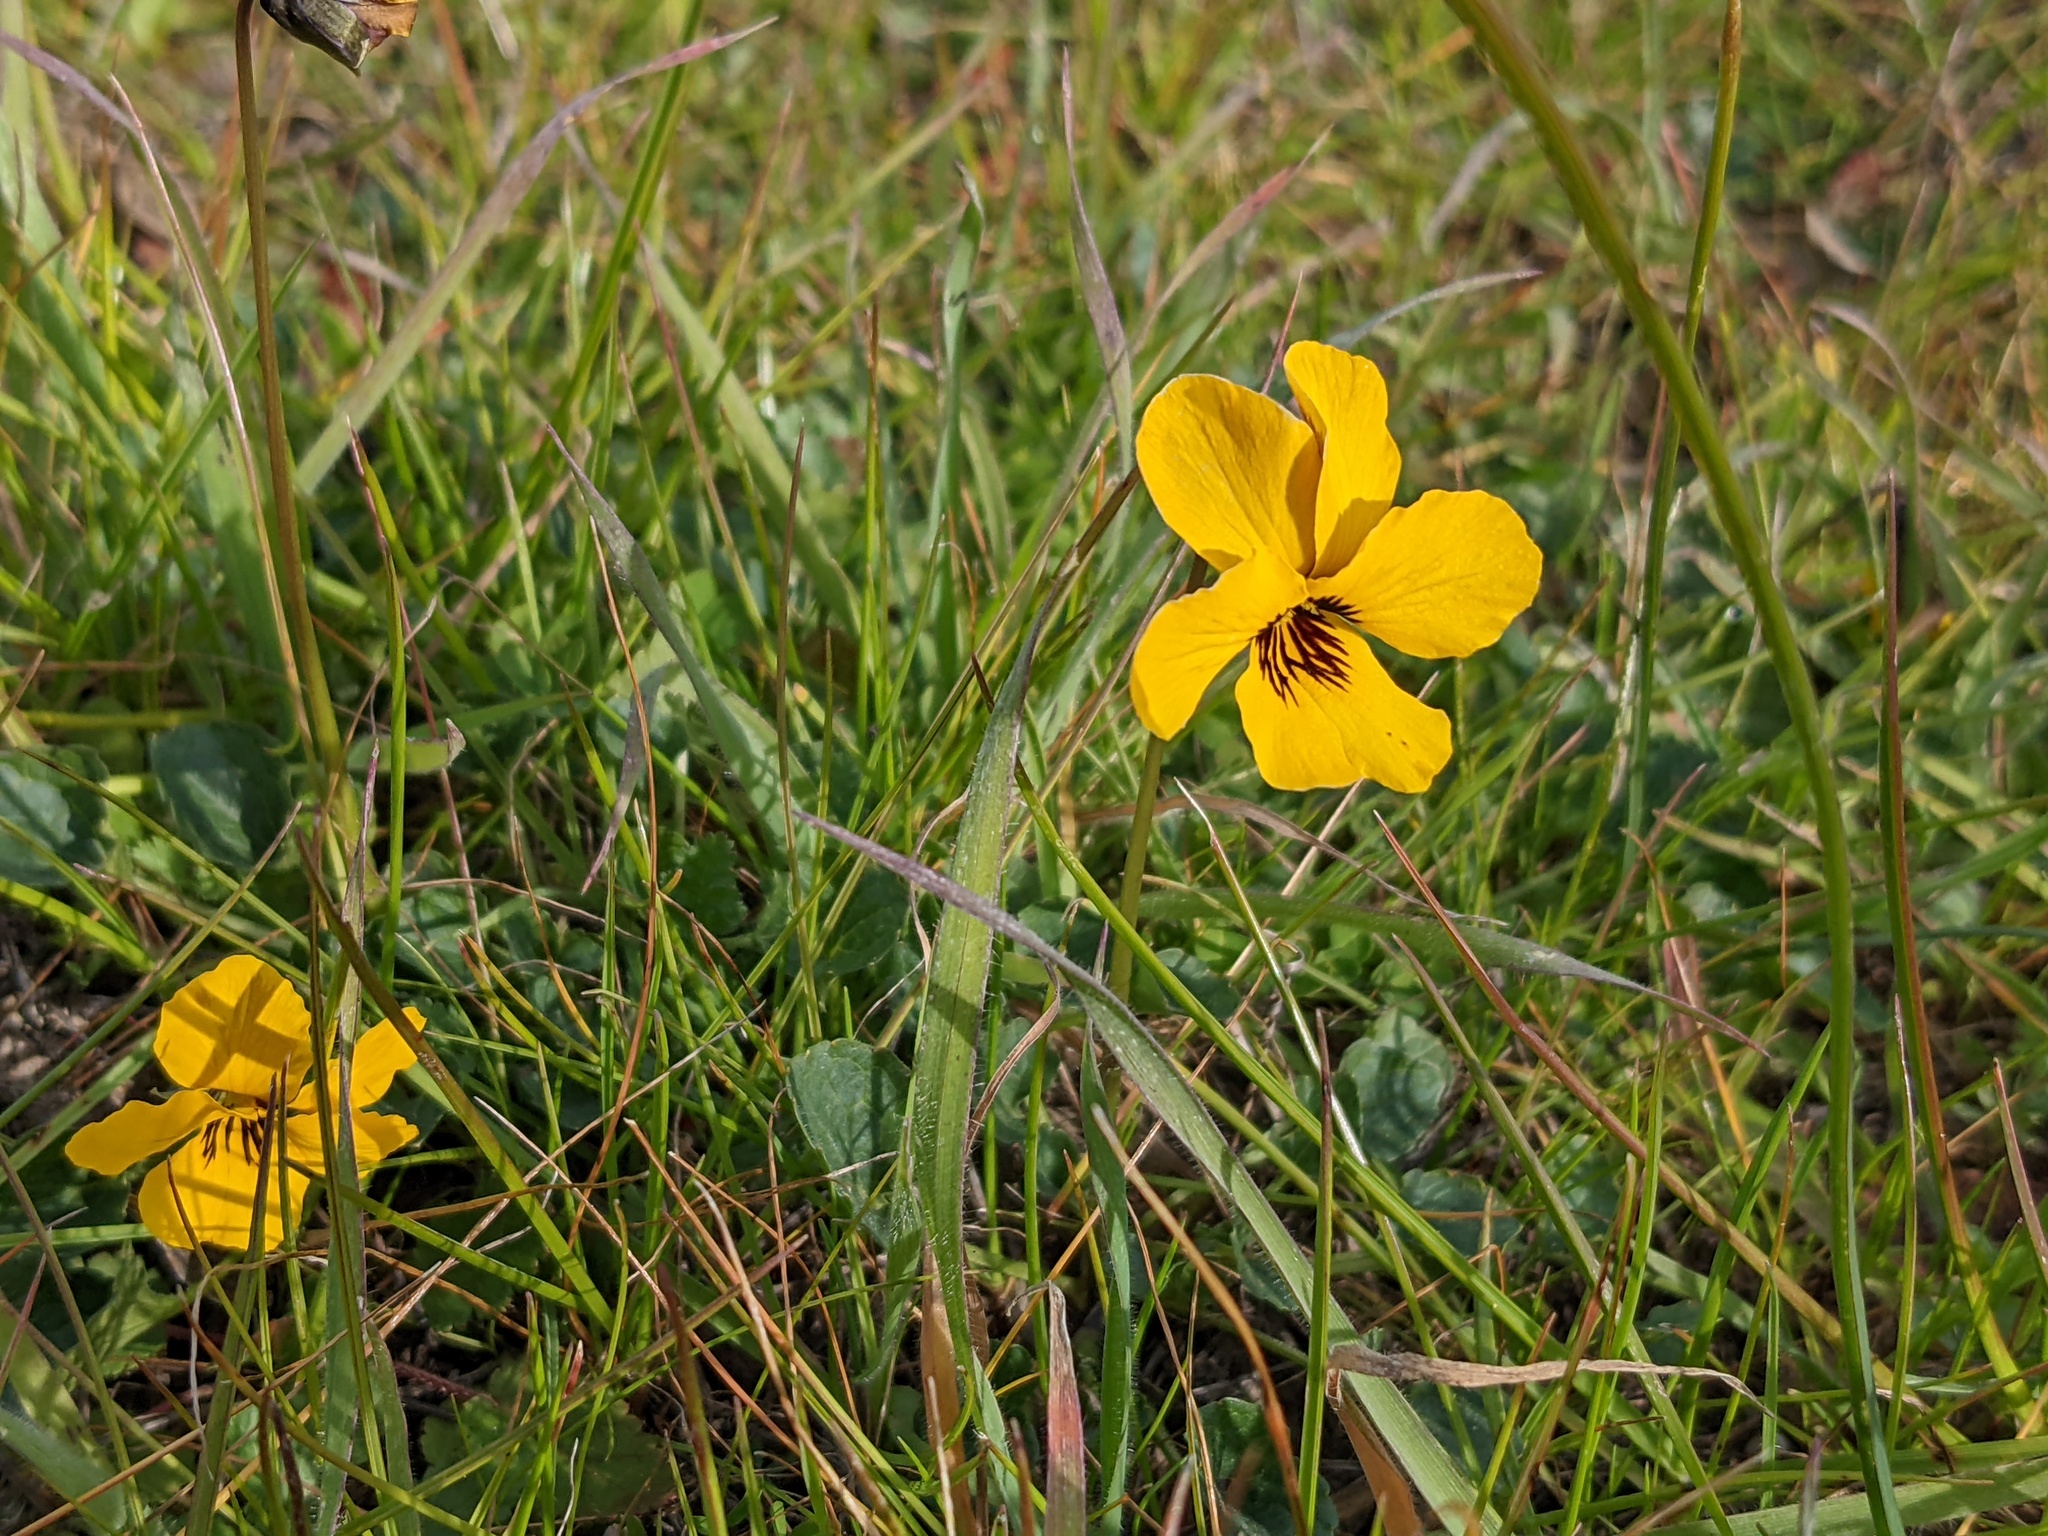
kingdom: Plantae
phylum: Tracheophyta
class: Magnoliopsida
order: Malpighiales
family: Violaceae
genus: Viola
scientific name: Viola pedunculata
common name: California golden violet
